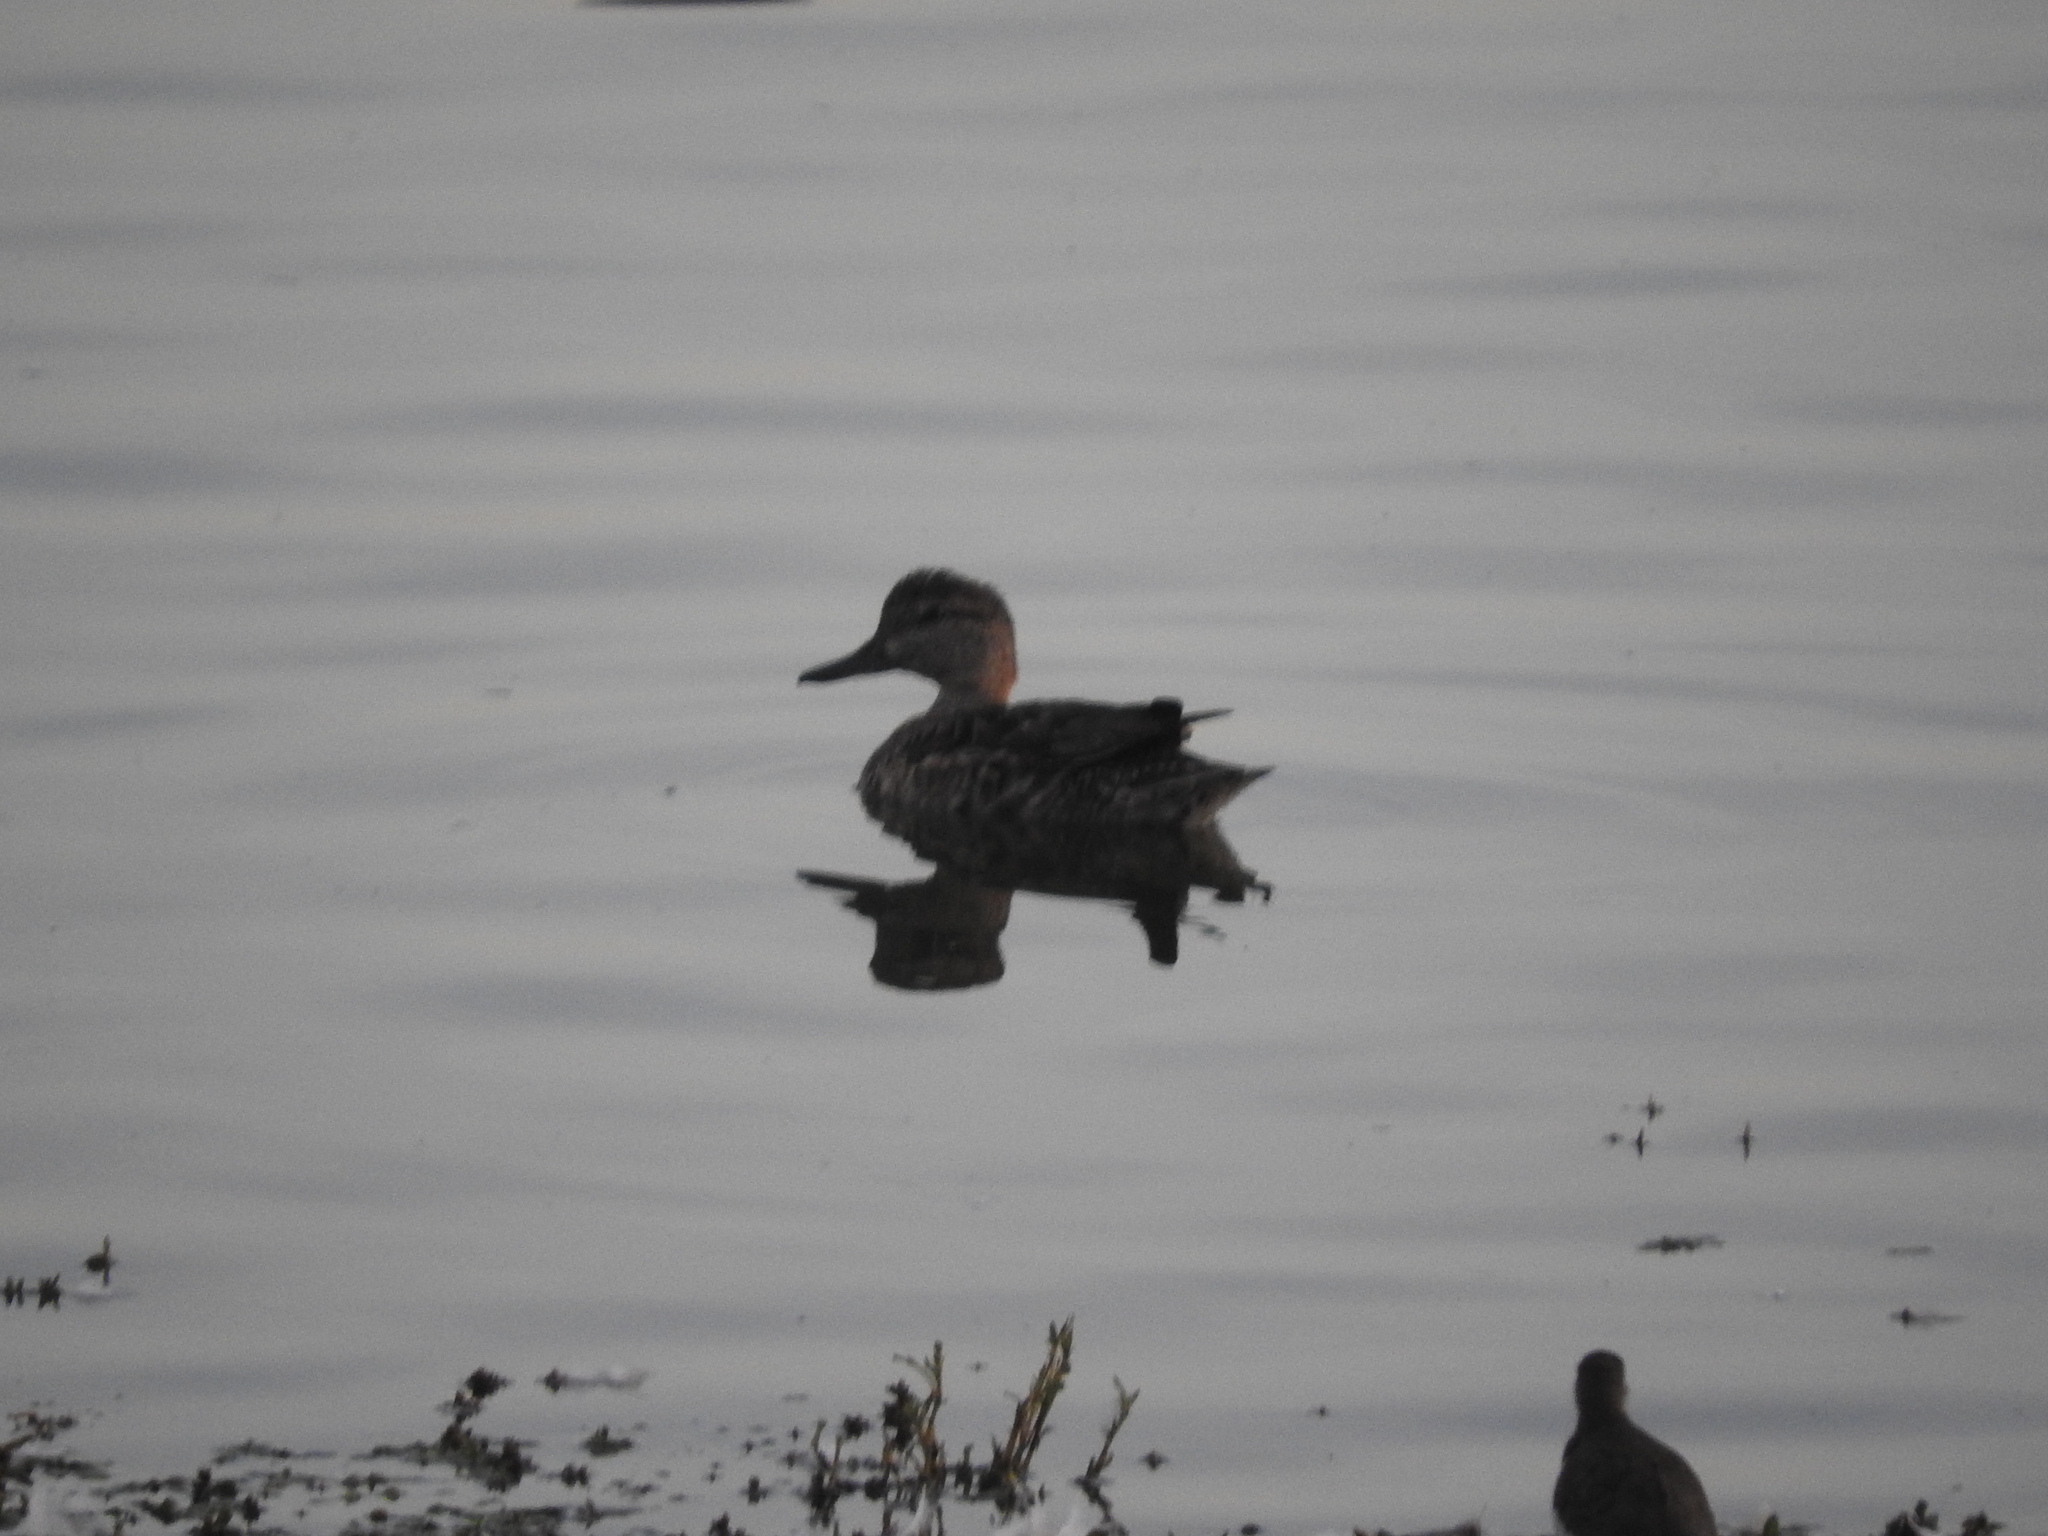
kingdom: Animalia
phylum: Chordata
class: Aves
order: Anseriformes
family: Anatidae
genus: Anas
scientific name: Anas crecca
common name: Eurasian teal
